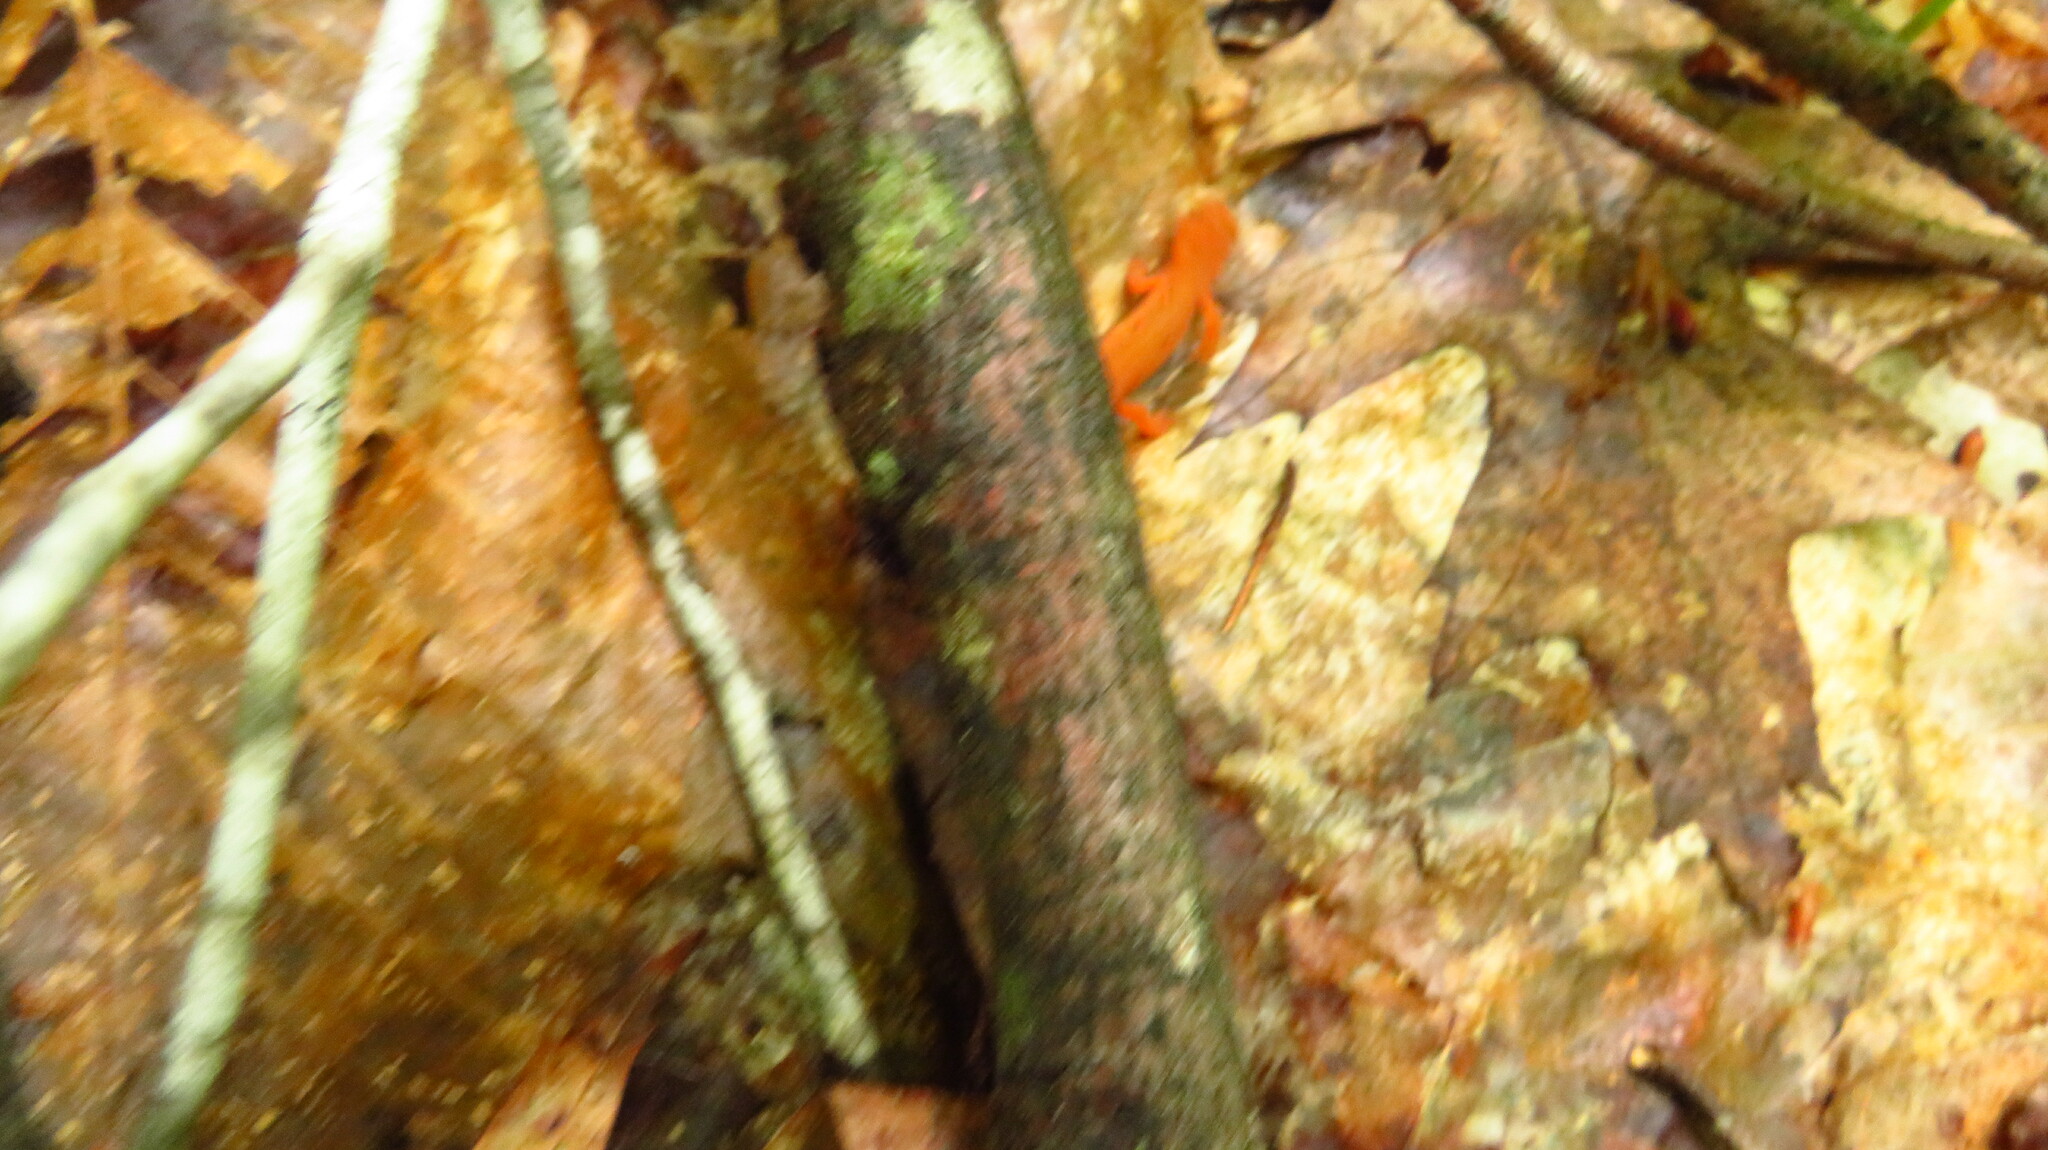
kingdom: Animalia
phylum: Chordata
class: Amphibia
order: Caudata
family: Salamandridae
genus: Notophthalmus
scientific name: Notophthalmus viridescens
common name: Eastern newt
